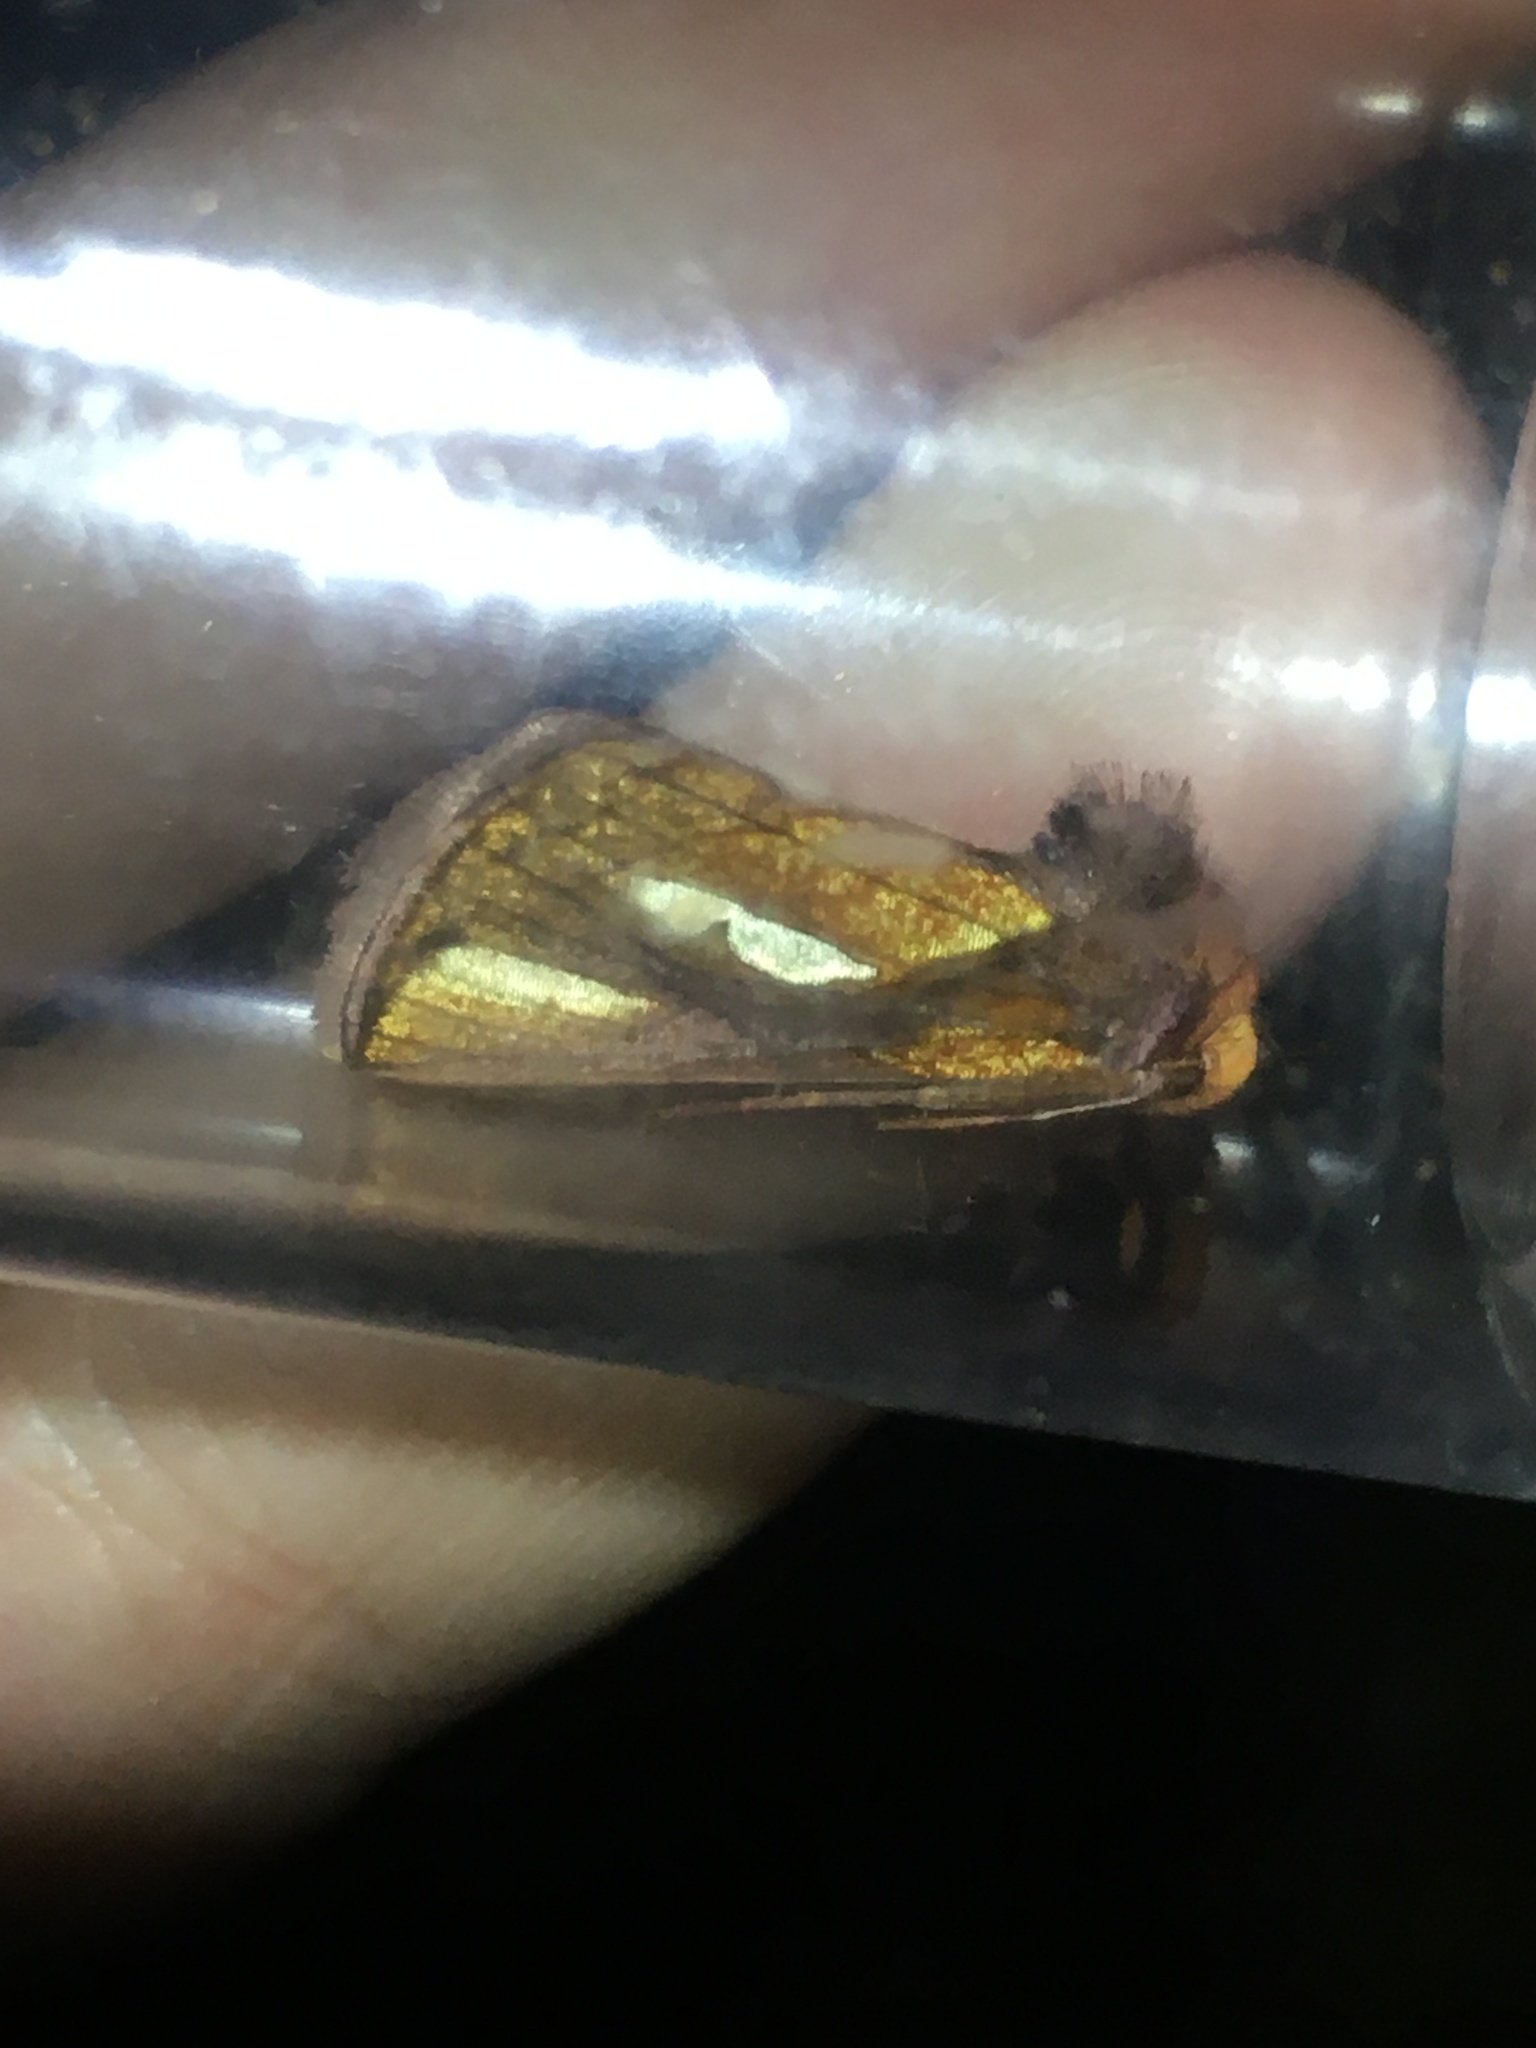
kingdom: Animalia
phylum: Arthropoda
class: Insecta
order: Lepidoptera
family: Noctuidae
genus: Plusia
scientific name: Plusia contexta
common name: Connected looper moth
